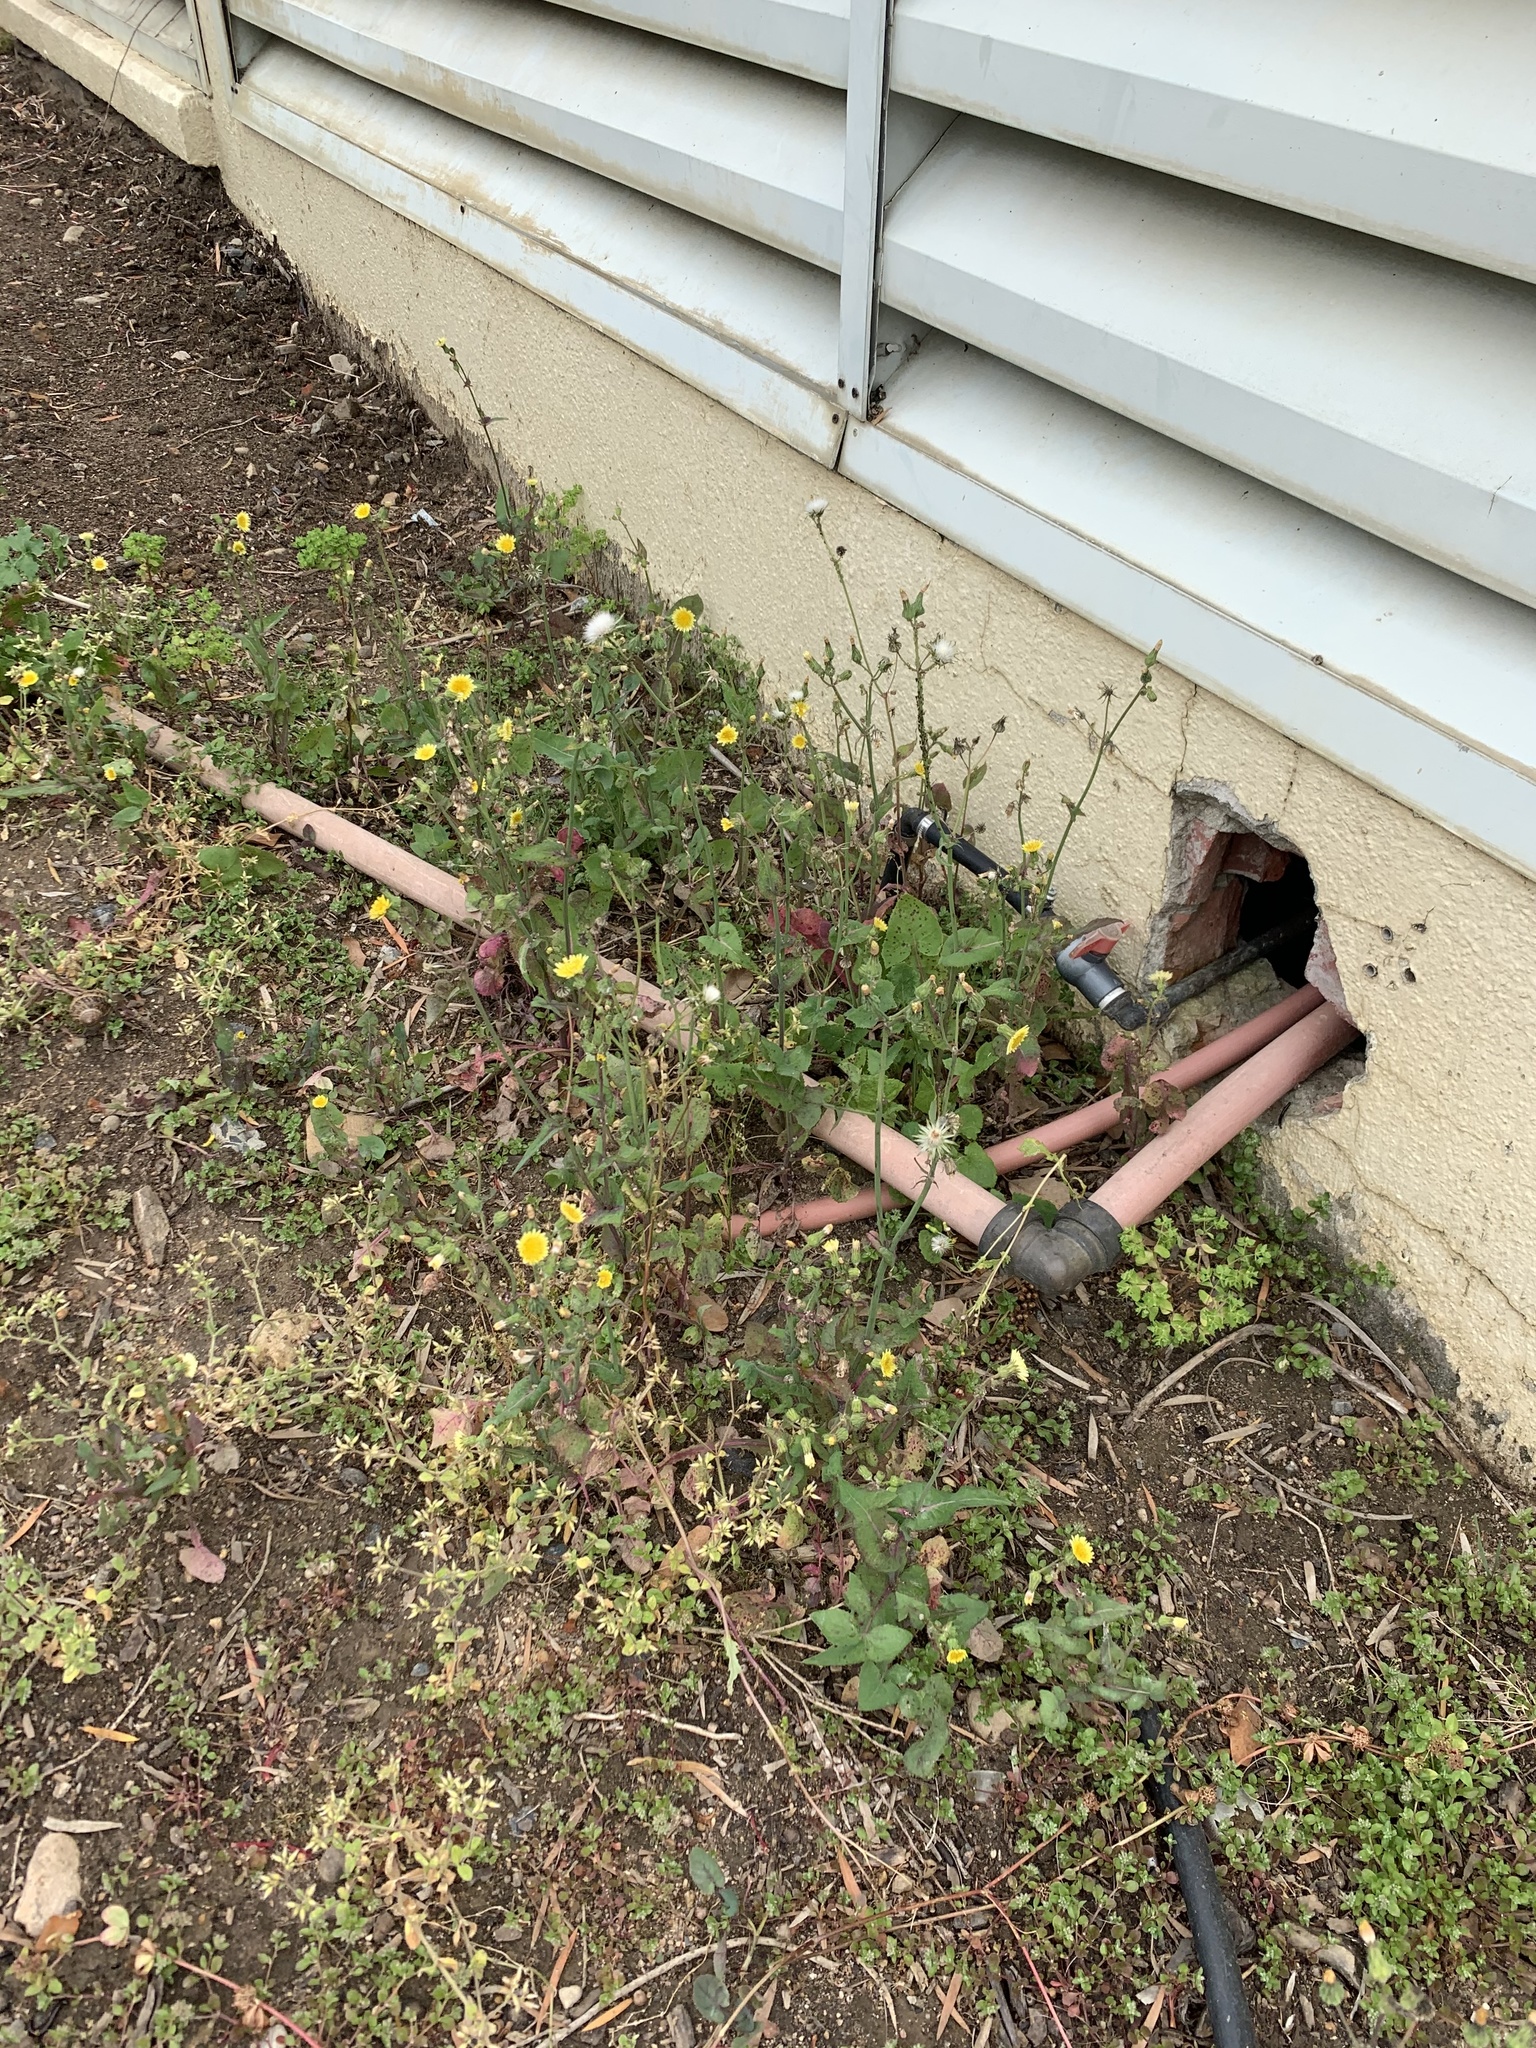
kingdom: Plantae
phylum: Tracheophyta
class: Magnoliopsida
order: Asterales
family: Asteraceae
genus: Sonchus
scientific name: Sonchus oleraceus
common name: Common sowthistle
